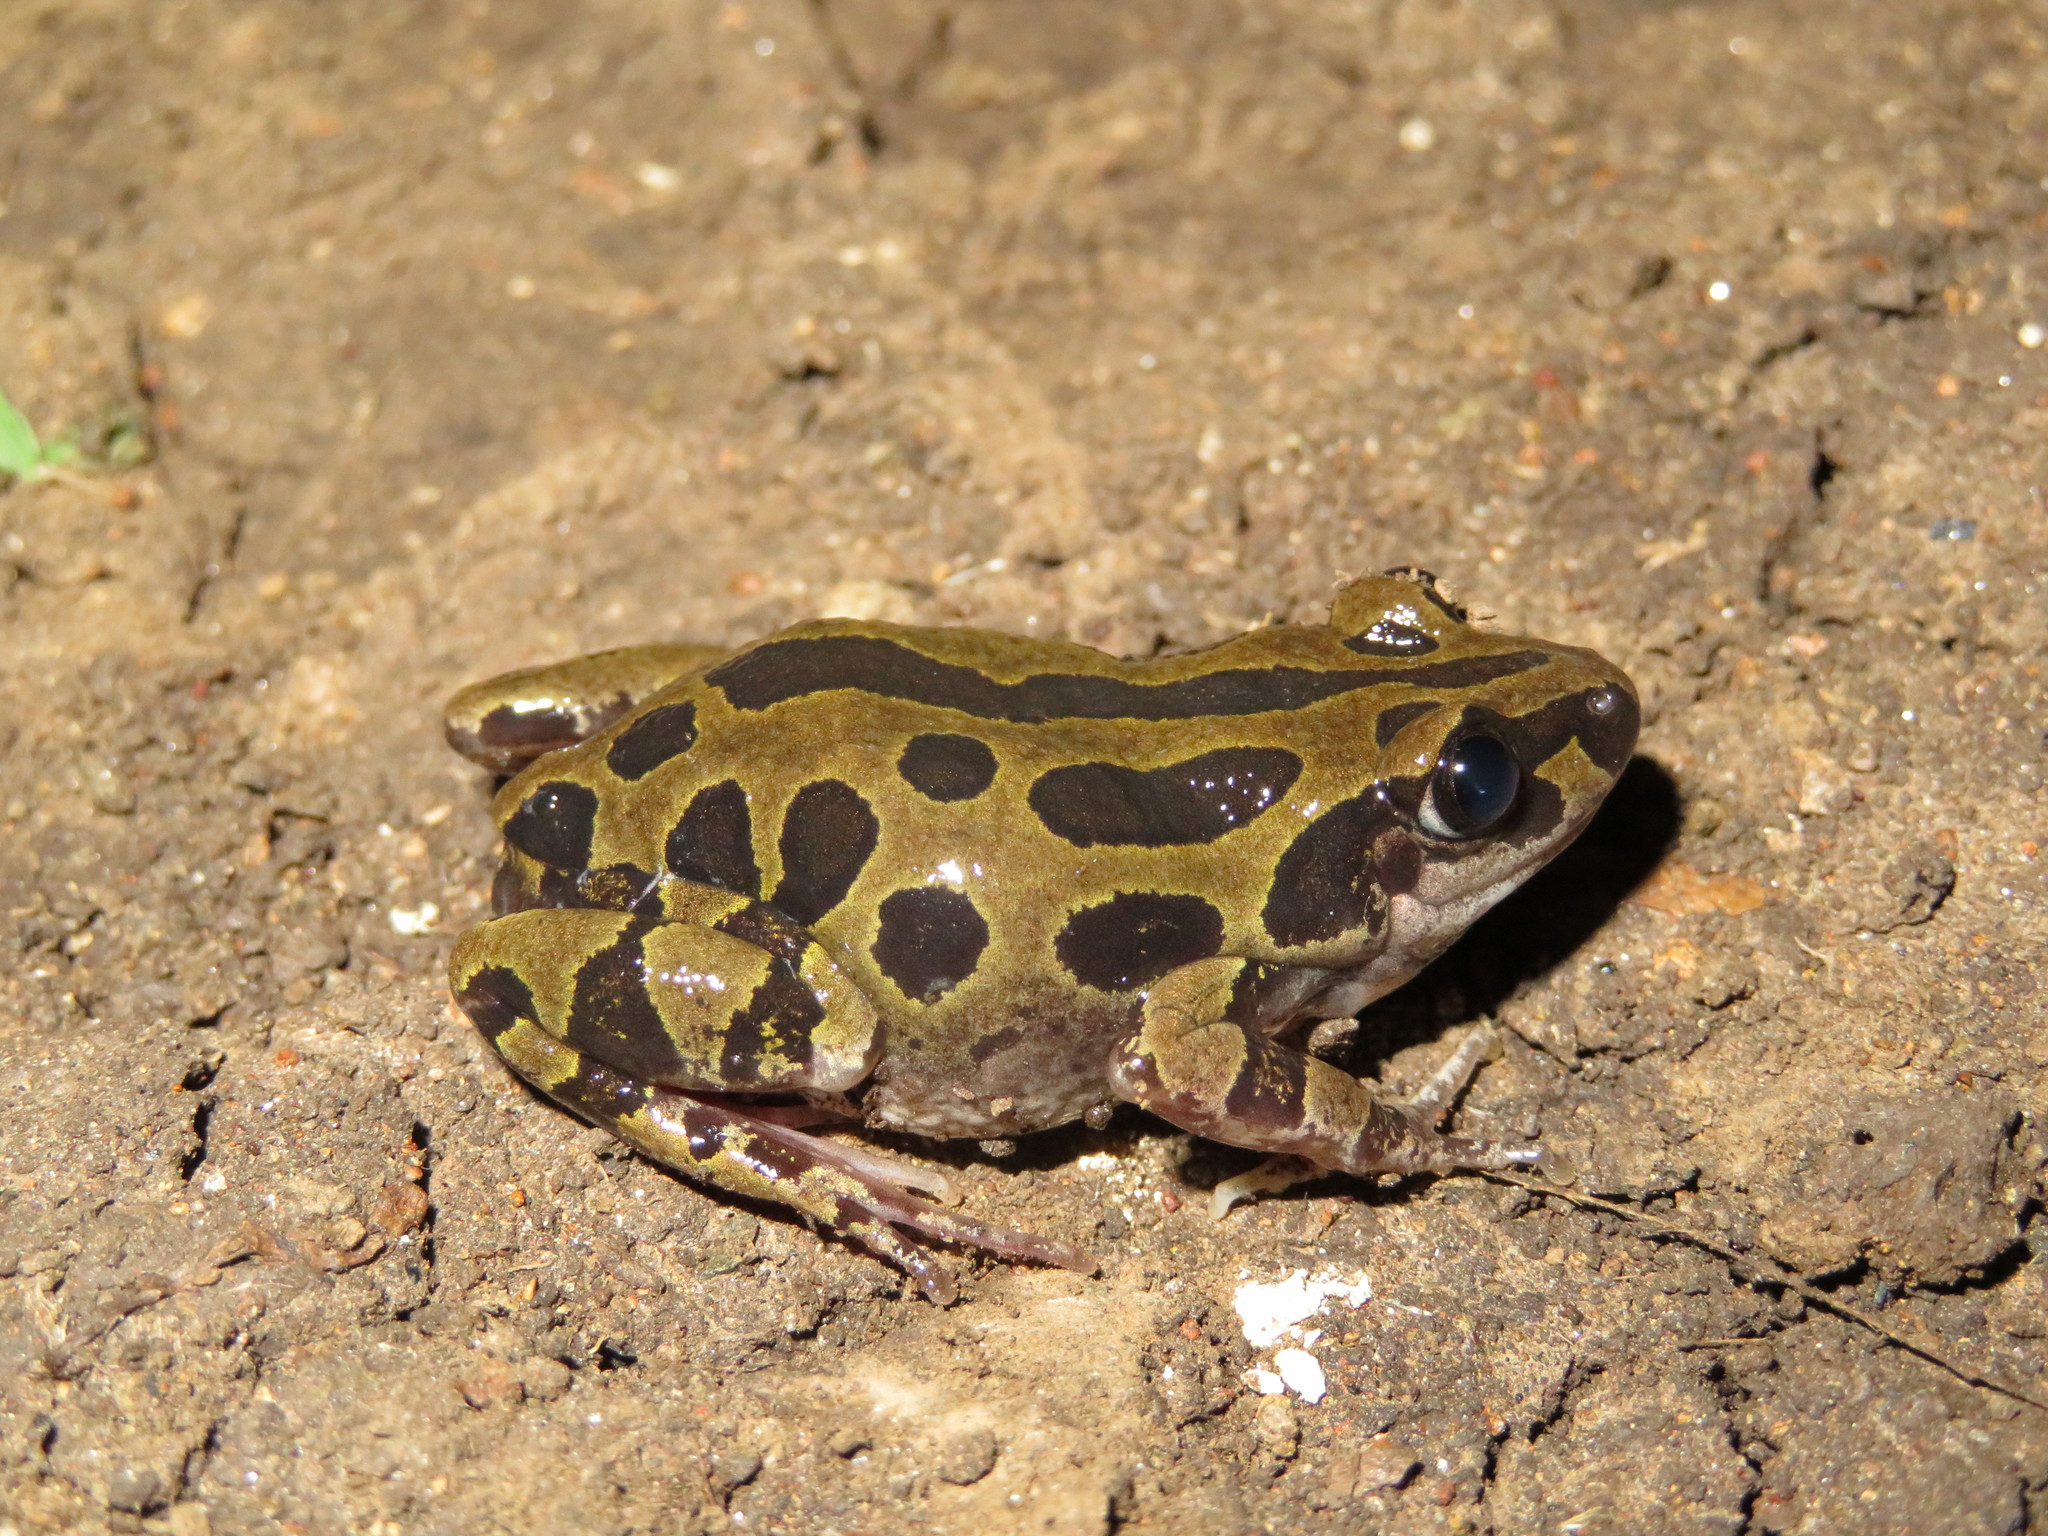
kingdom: Animalia
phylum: Chordata
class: Amphibia
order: Anura
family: Hyperoliidae
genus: Kassina
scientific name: Kassina senegalensis
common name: Senegal land frog
